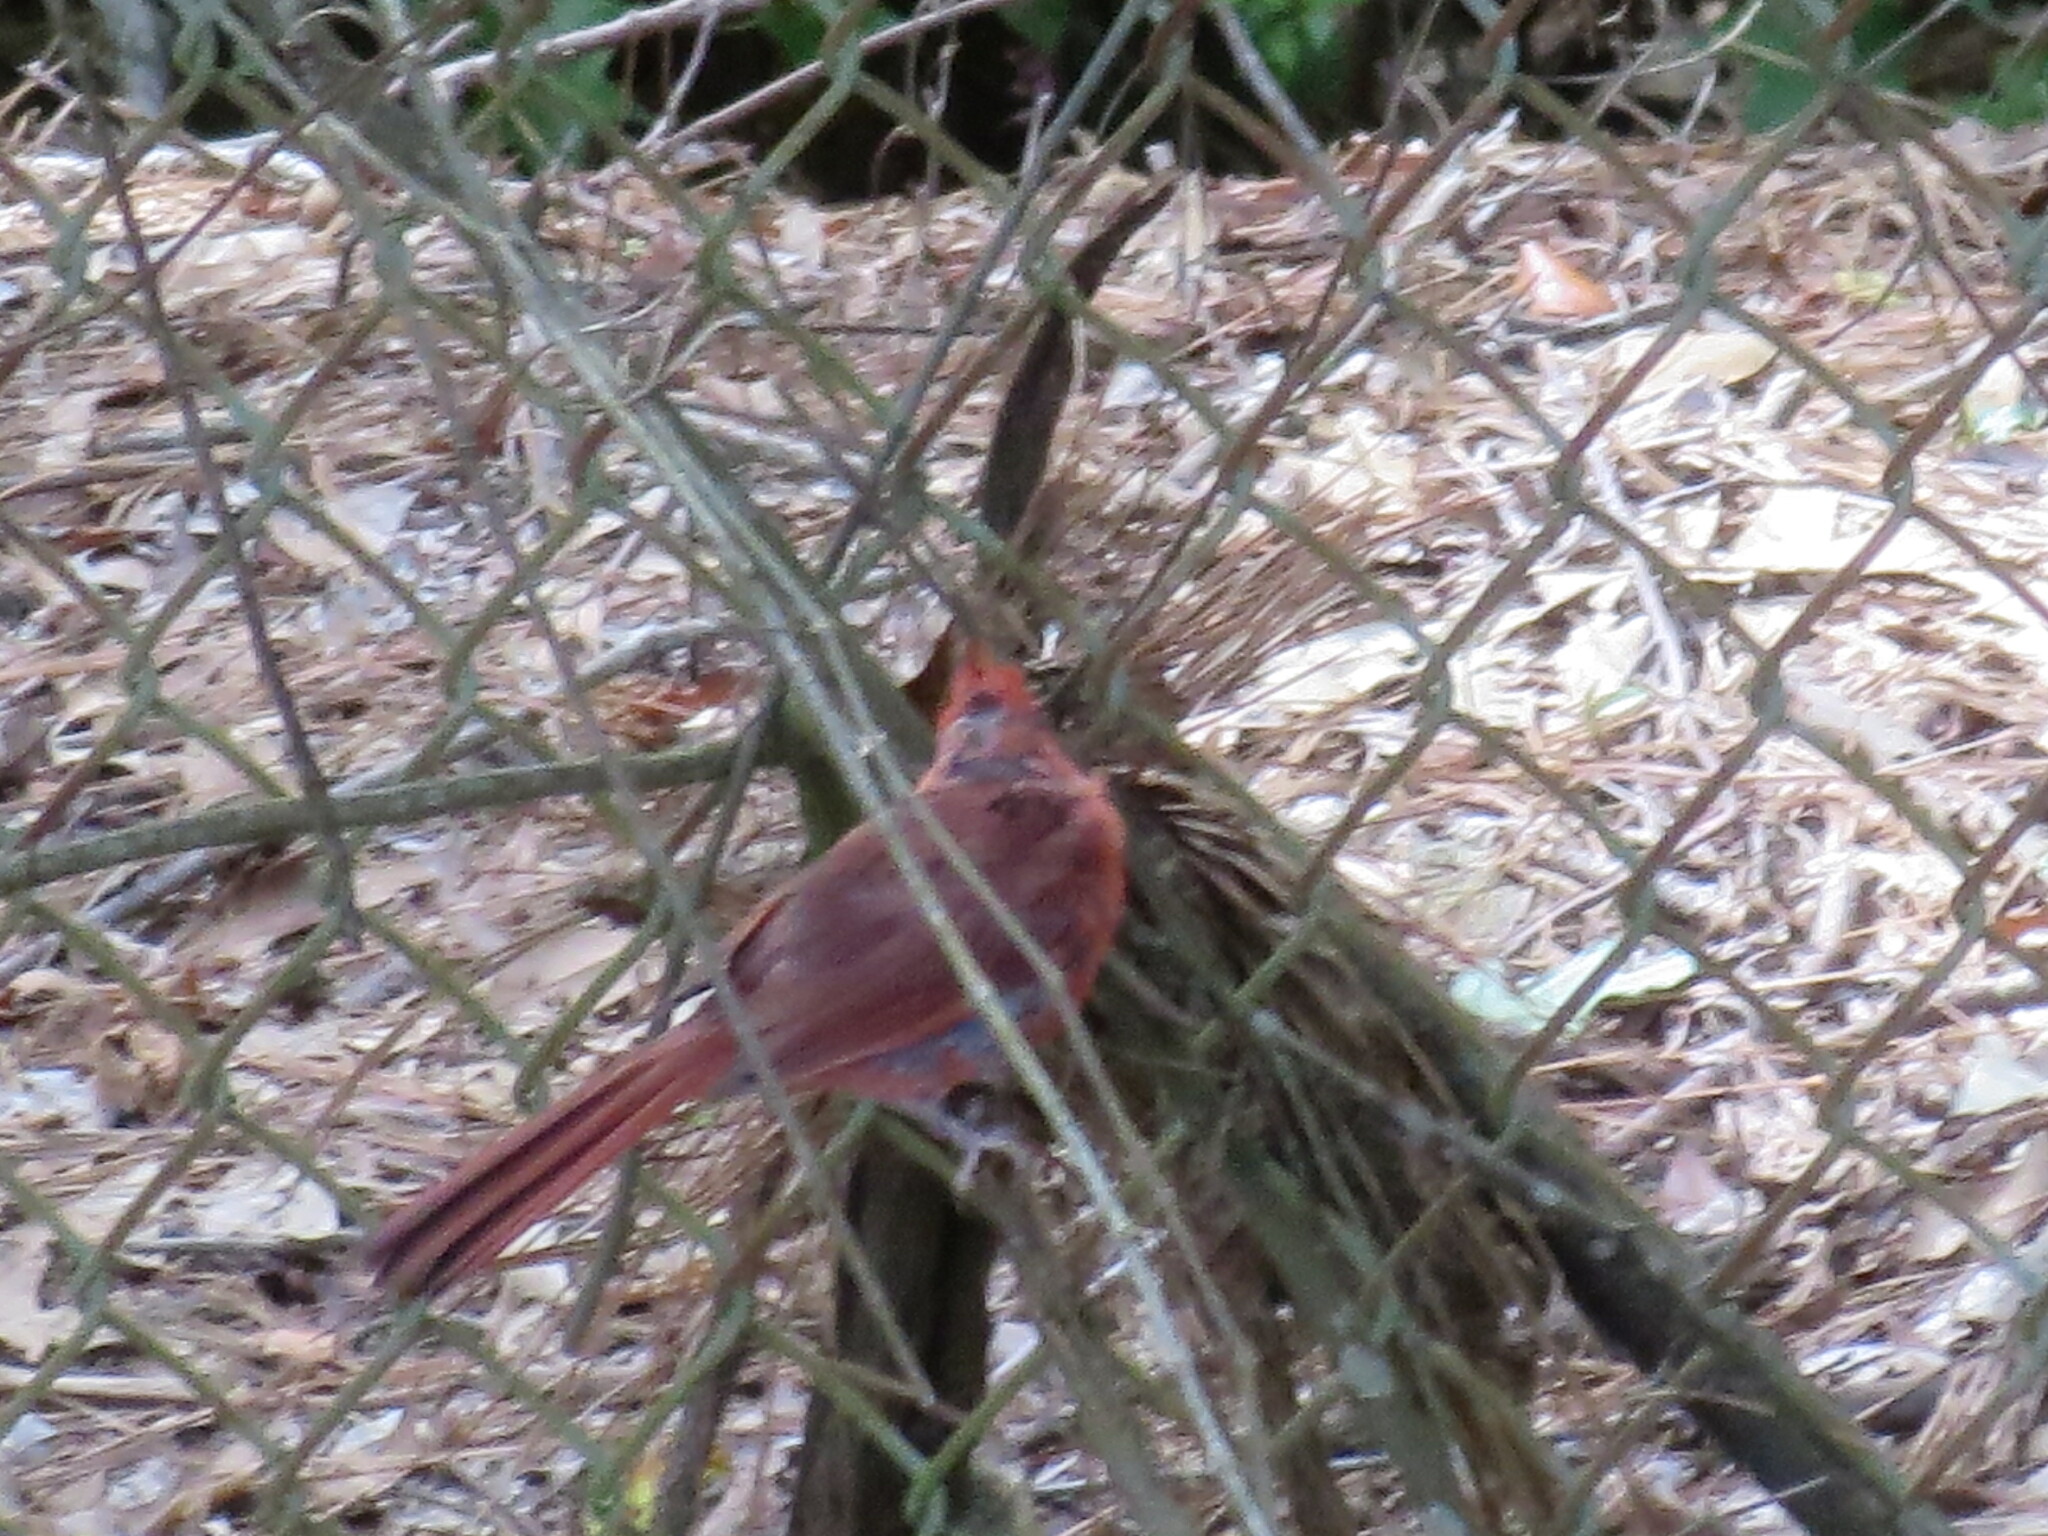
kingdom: Animalia
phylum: Chordata
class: Aves
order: Passeriformes
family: Cardinalidae
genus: Cardinalis
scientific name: Cardinalis cardinalis
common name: Northern cardinal
